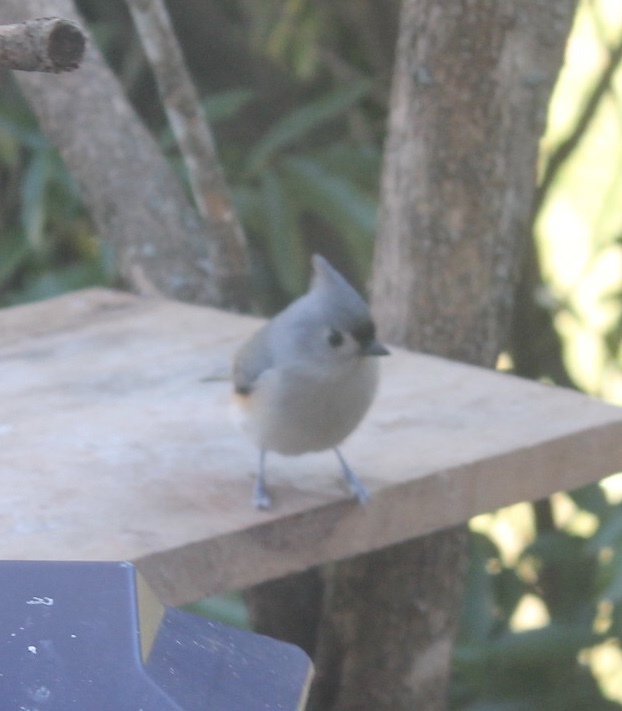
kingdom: Animalia
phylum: Chordata
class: Aves
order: Passeriformes
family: Paridae
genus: Baeolophus
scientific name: Baeolophus bicolor
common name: Tufted titmouse
